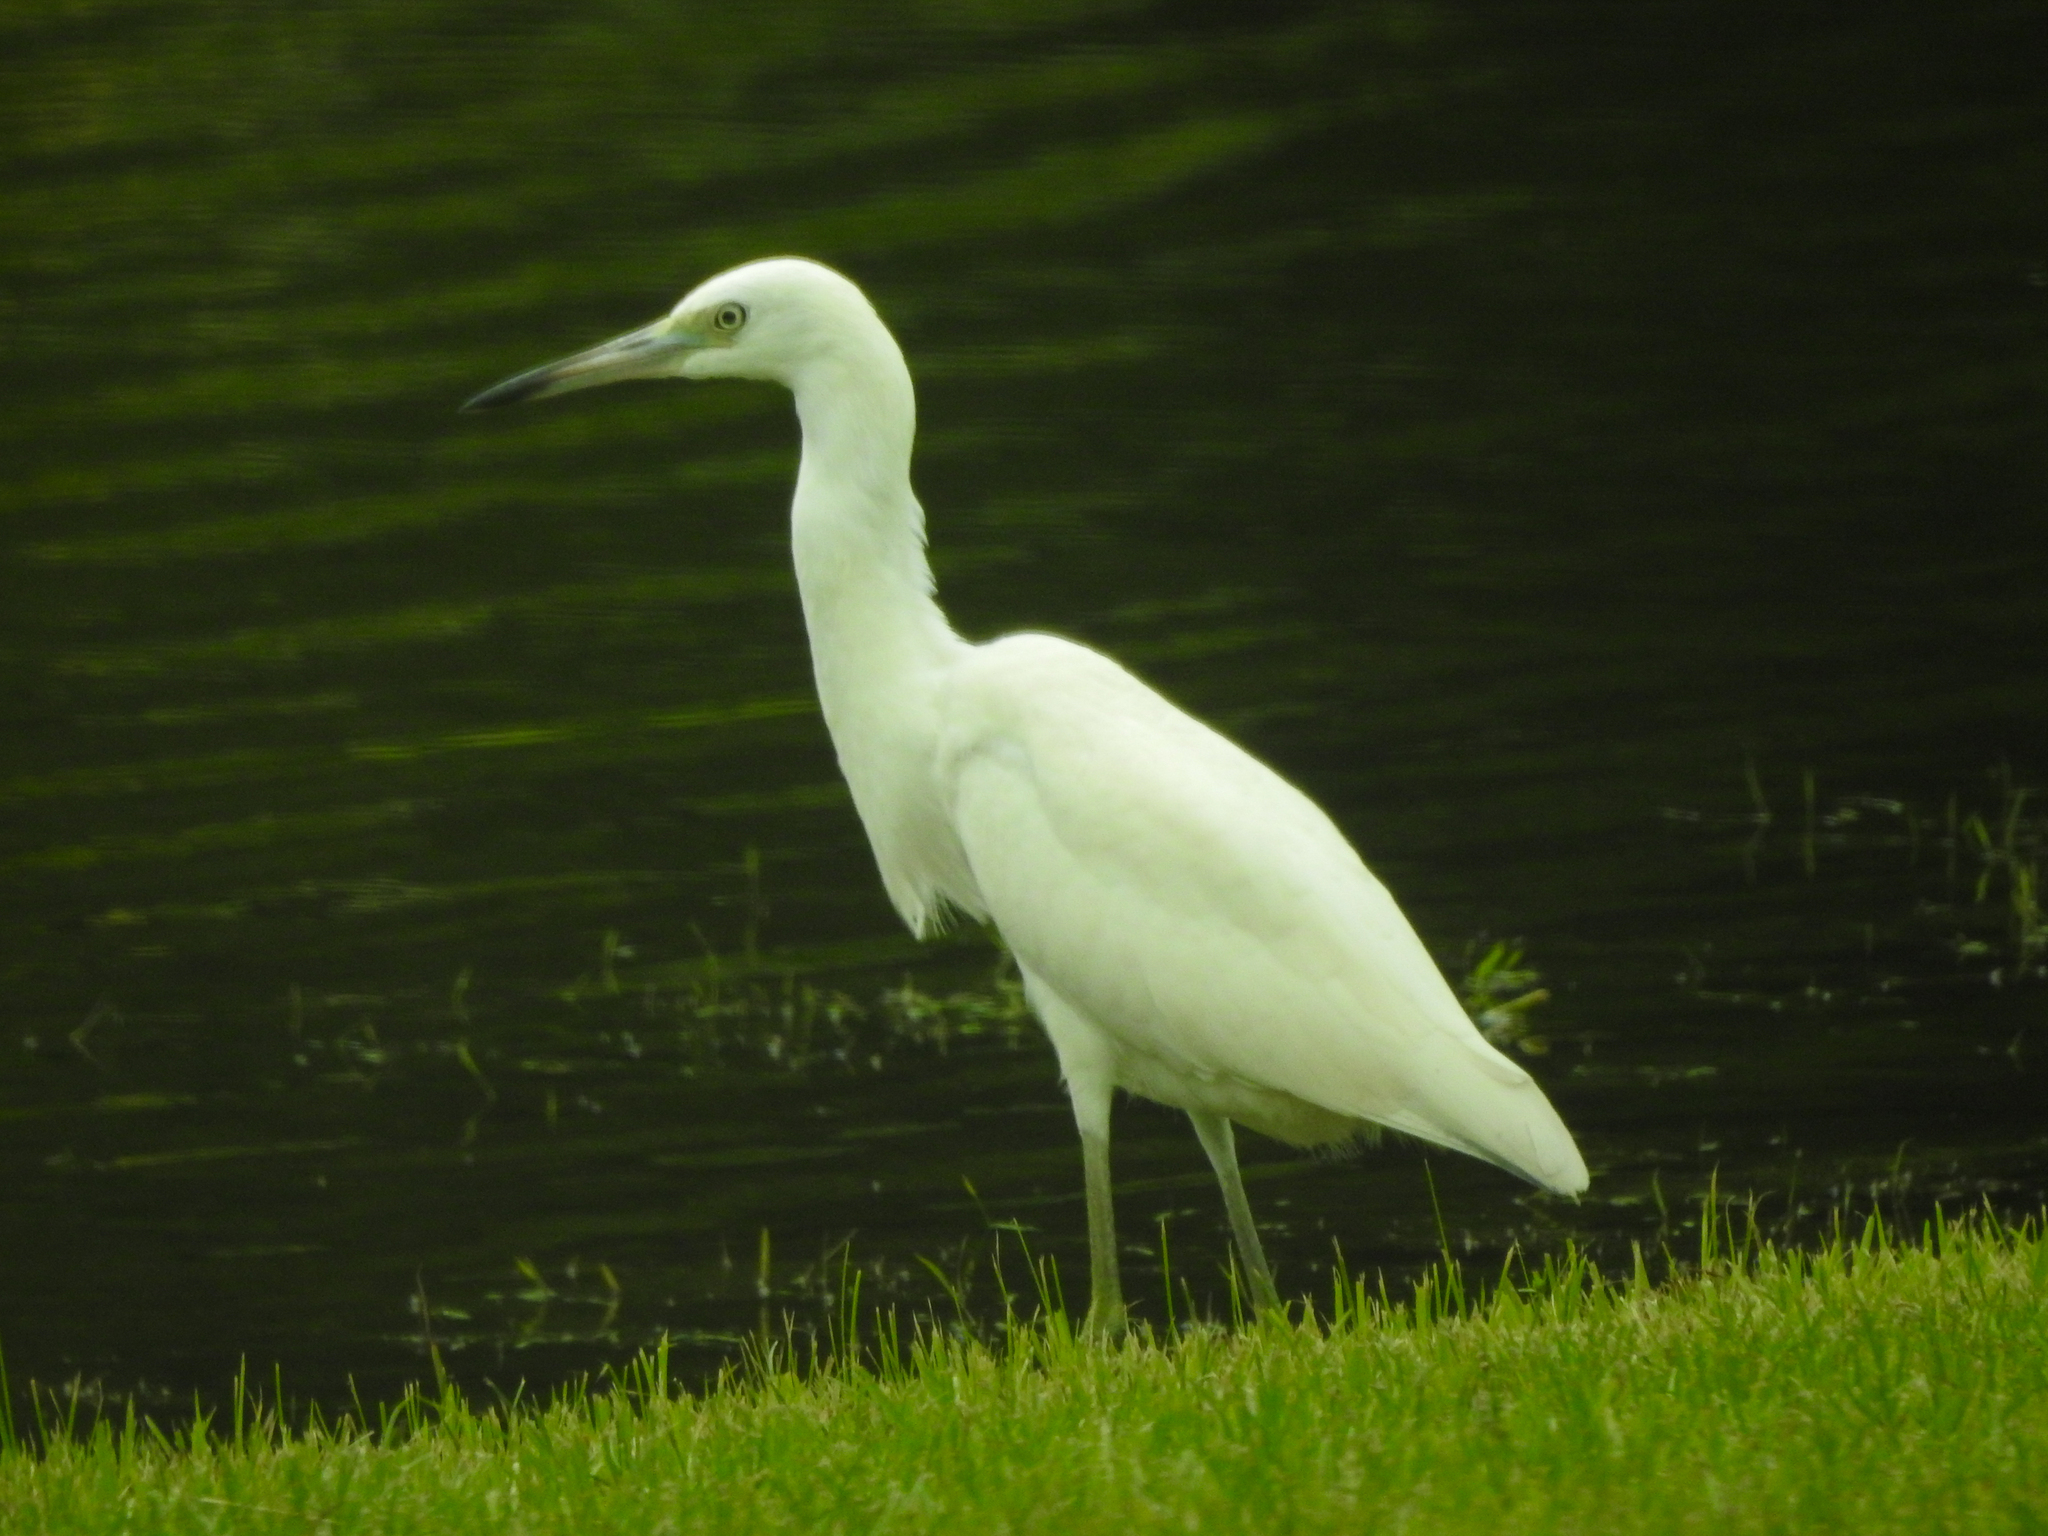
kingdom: Animalia
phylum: Chordata
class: Aves
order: Pelecaniformes
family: Ardeidae
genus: Egretta
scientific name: Egretta caerulea
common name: Little blue heron
